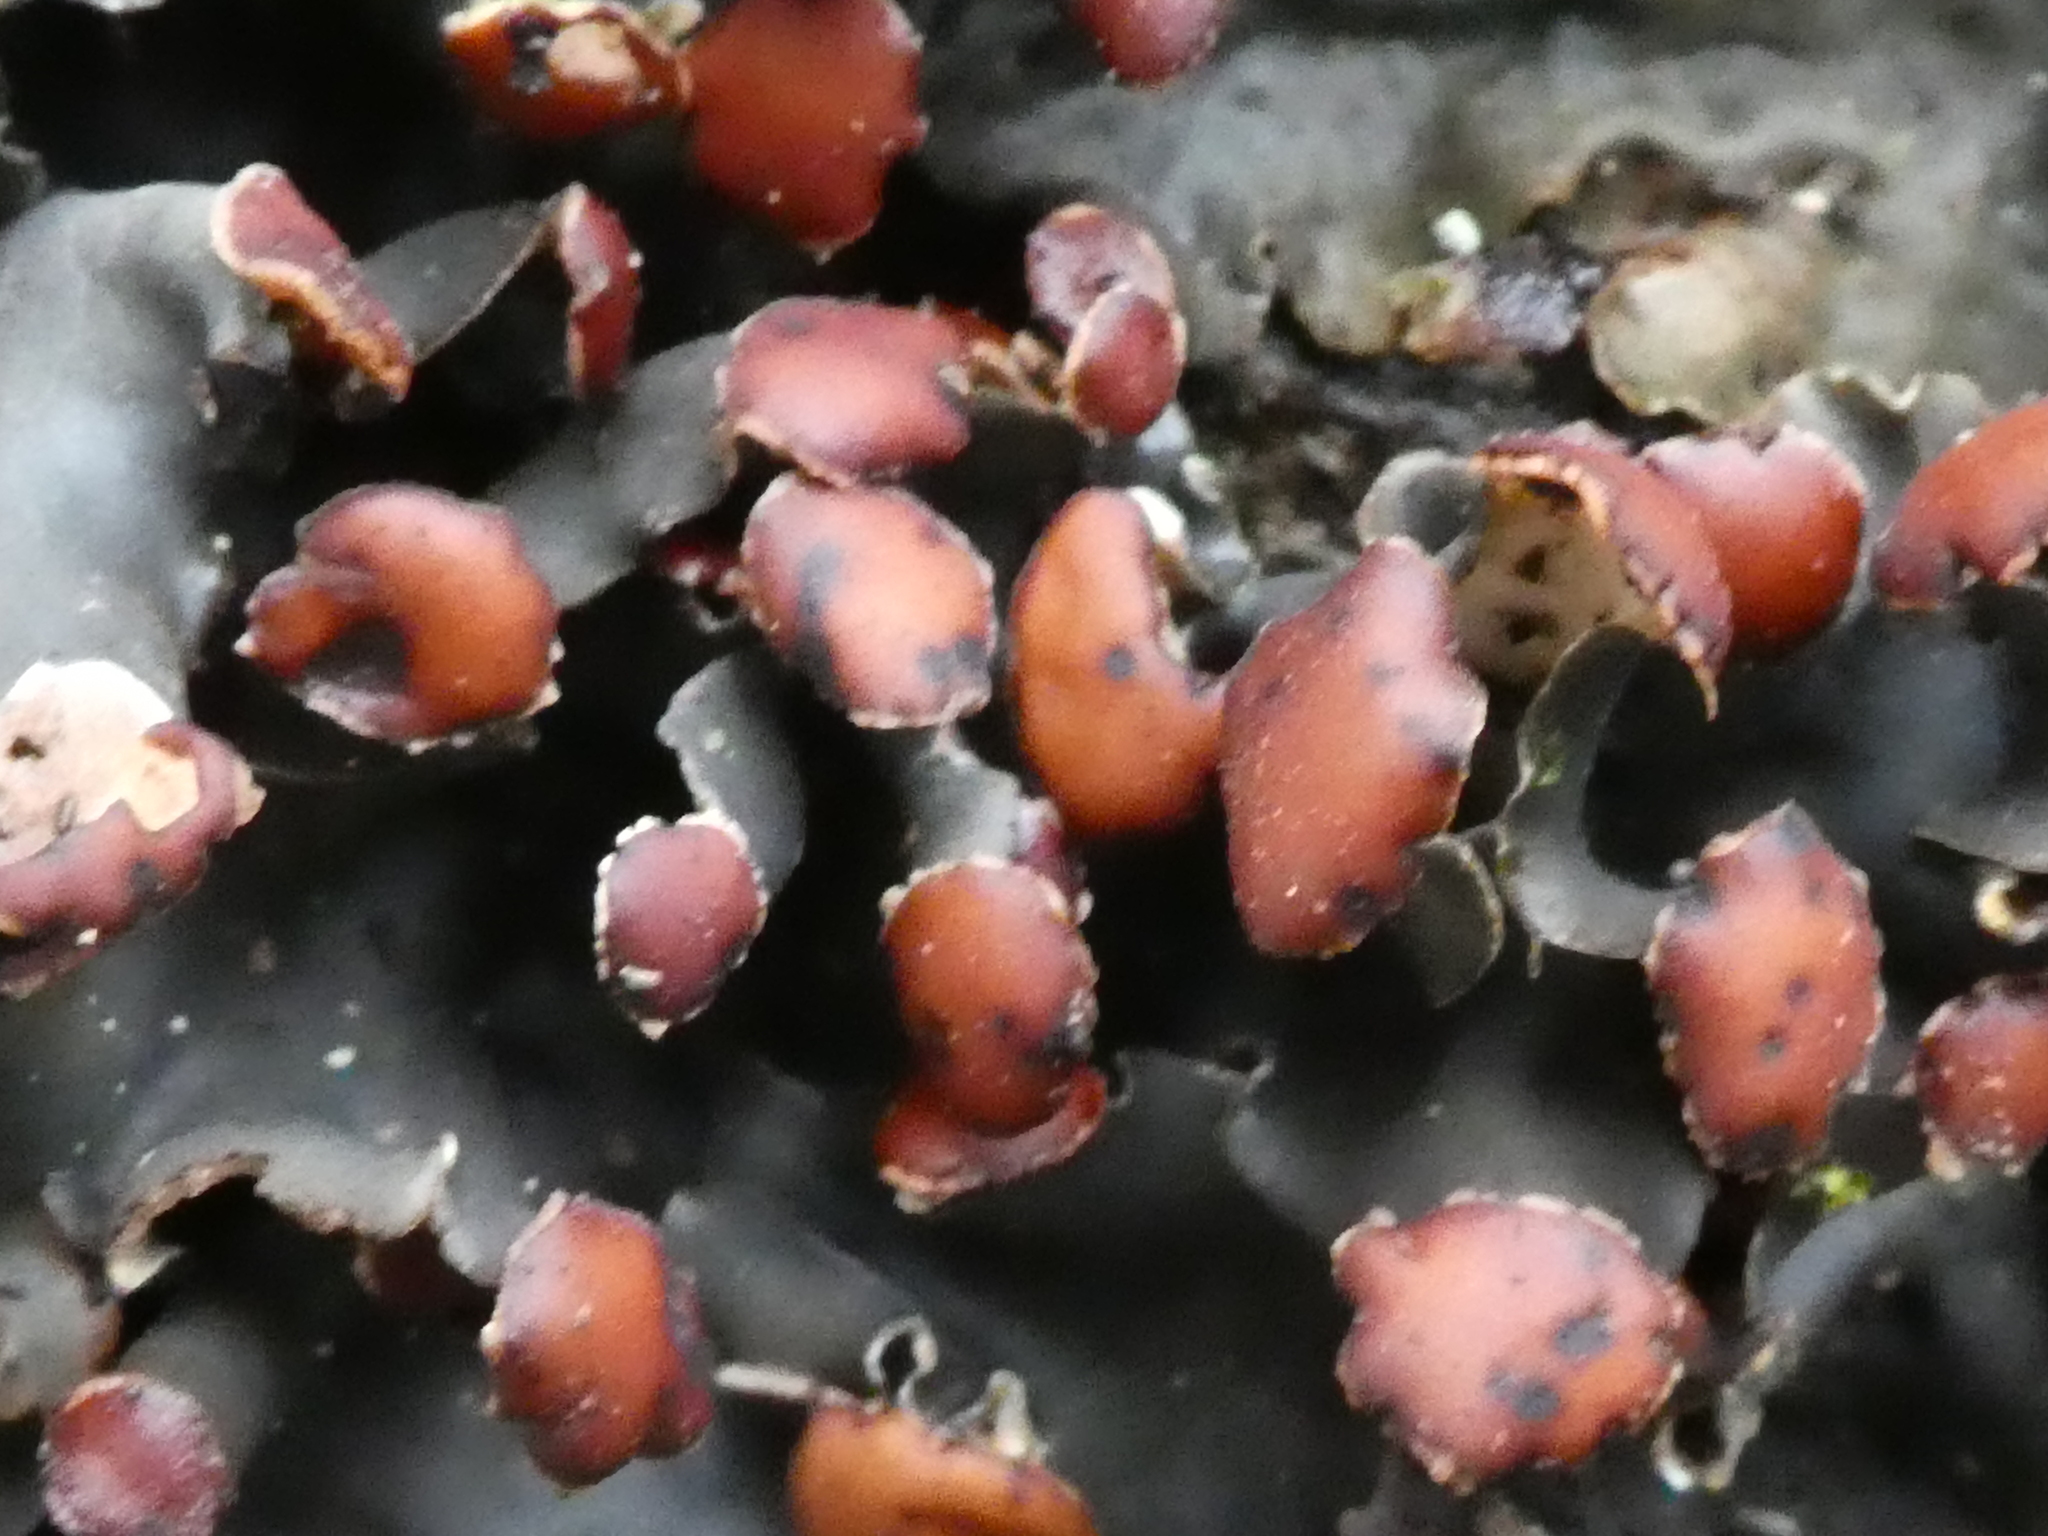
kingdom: Fungi
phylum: Ascomycota
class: Lecanoromycetes
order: Peltigerales
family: Peltigeraceae
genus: Peltigera
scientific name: Peltigera horizontalis
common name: Flat fruited pelt
